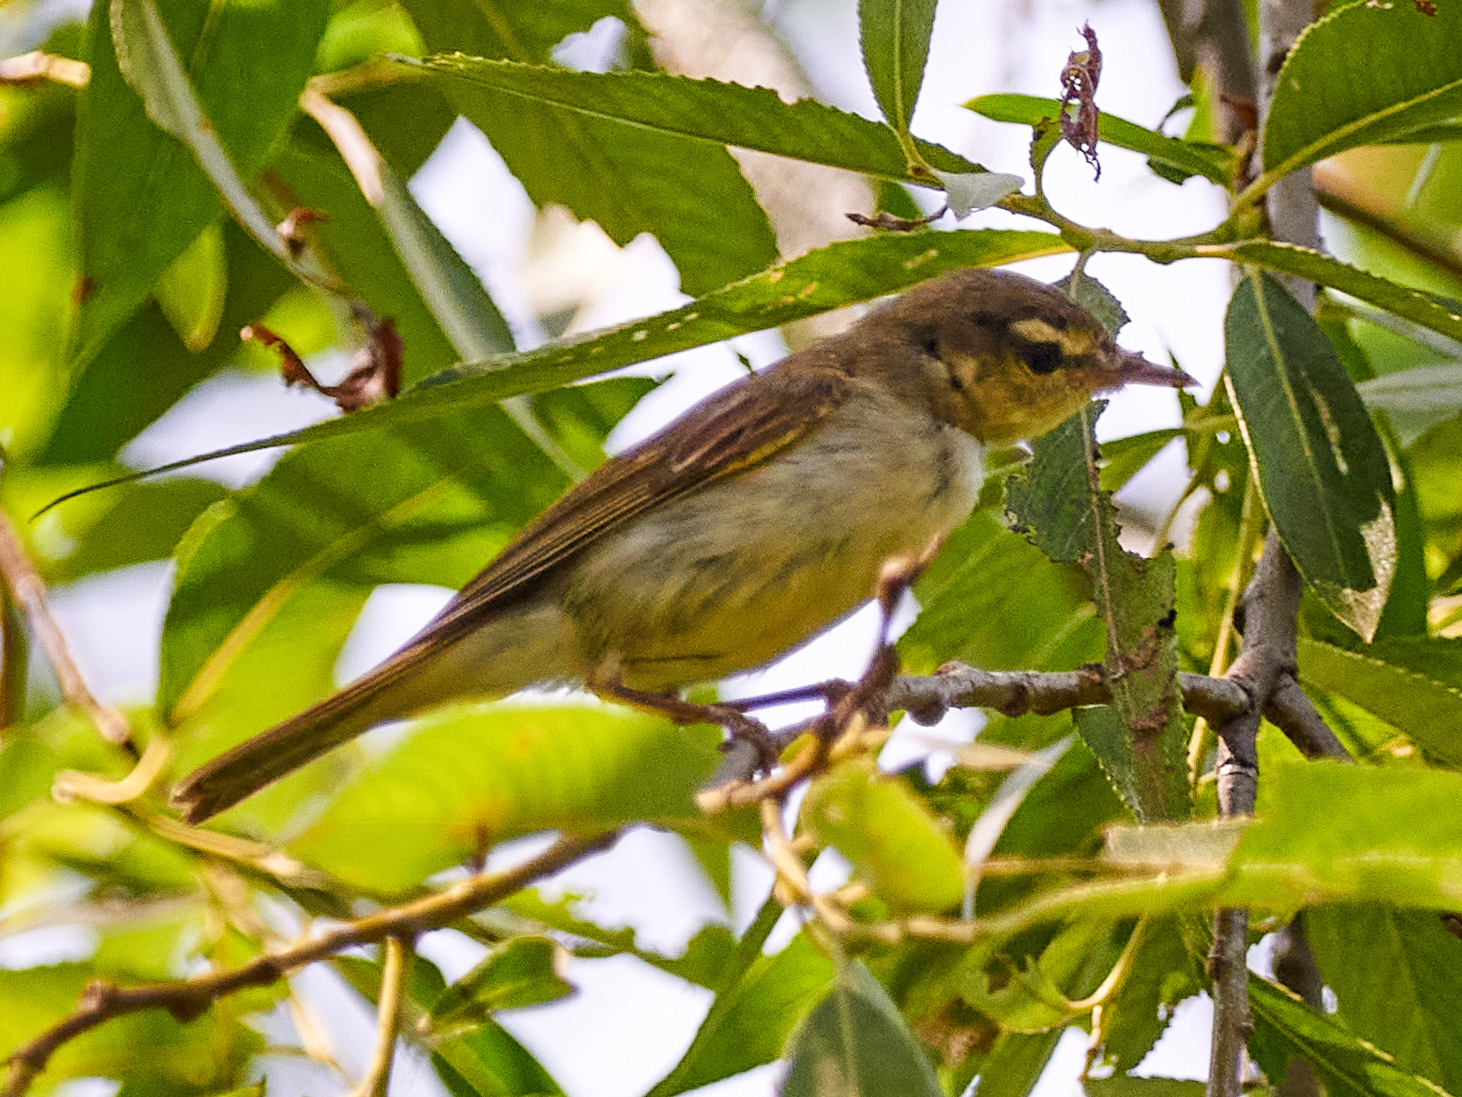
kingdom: Animalia
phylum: Chordata
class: Aves
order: Passeriformes
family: Phylloscopidae
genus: Phylloscopus
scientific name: Phylloscopus trochilus
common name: Willow warbler
